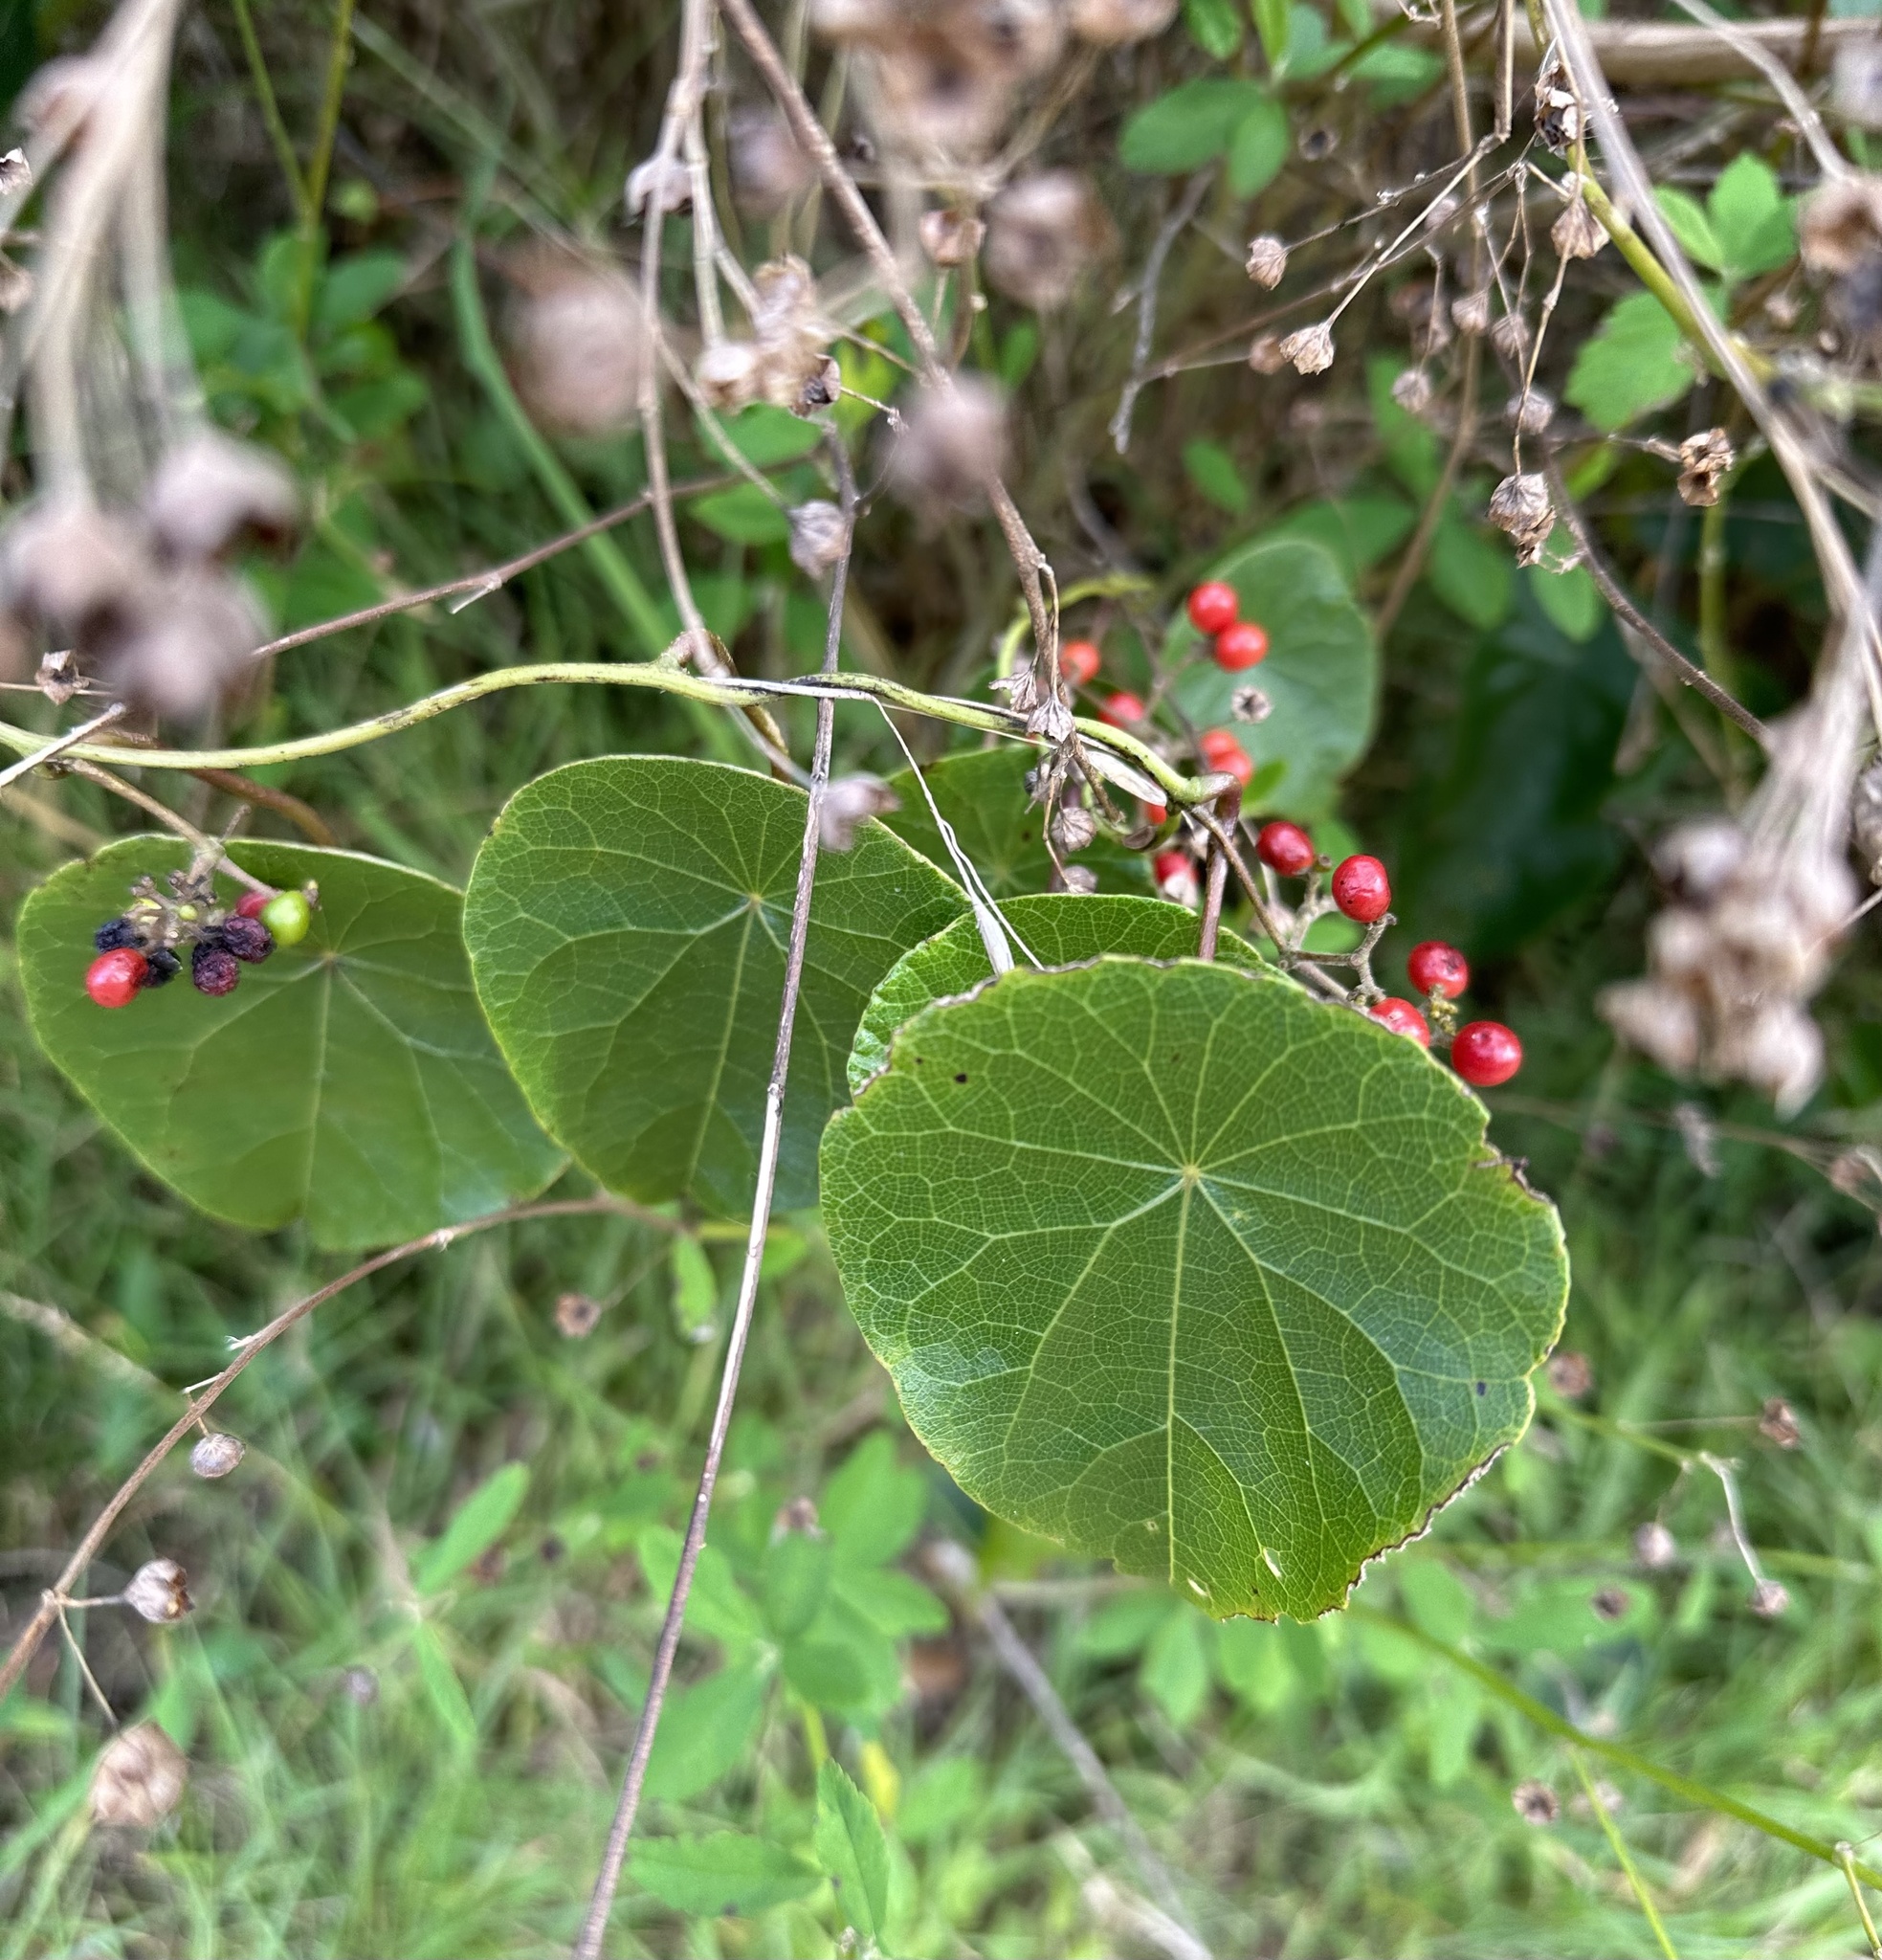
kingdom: Plantae
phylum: Tracheophyta
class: Magnoliopsida
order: Ranunculales
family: Menispermaceae
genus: Stephania
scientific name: Stephania japonica
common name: Snake vine
